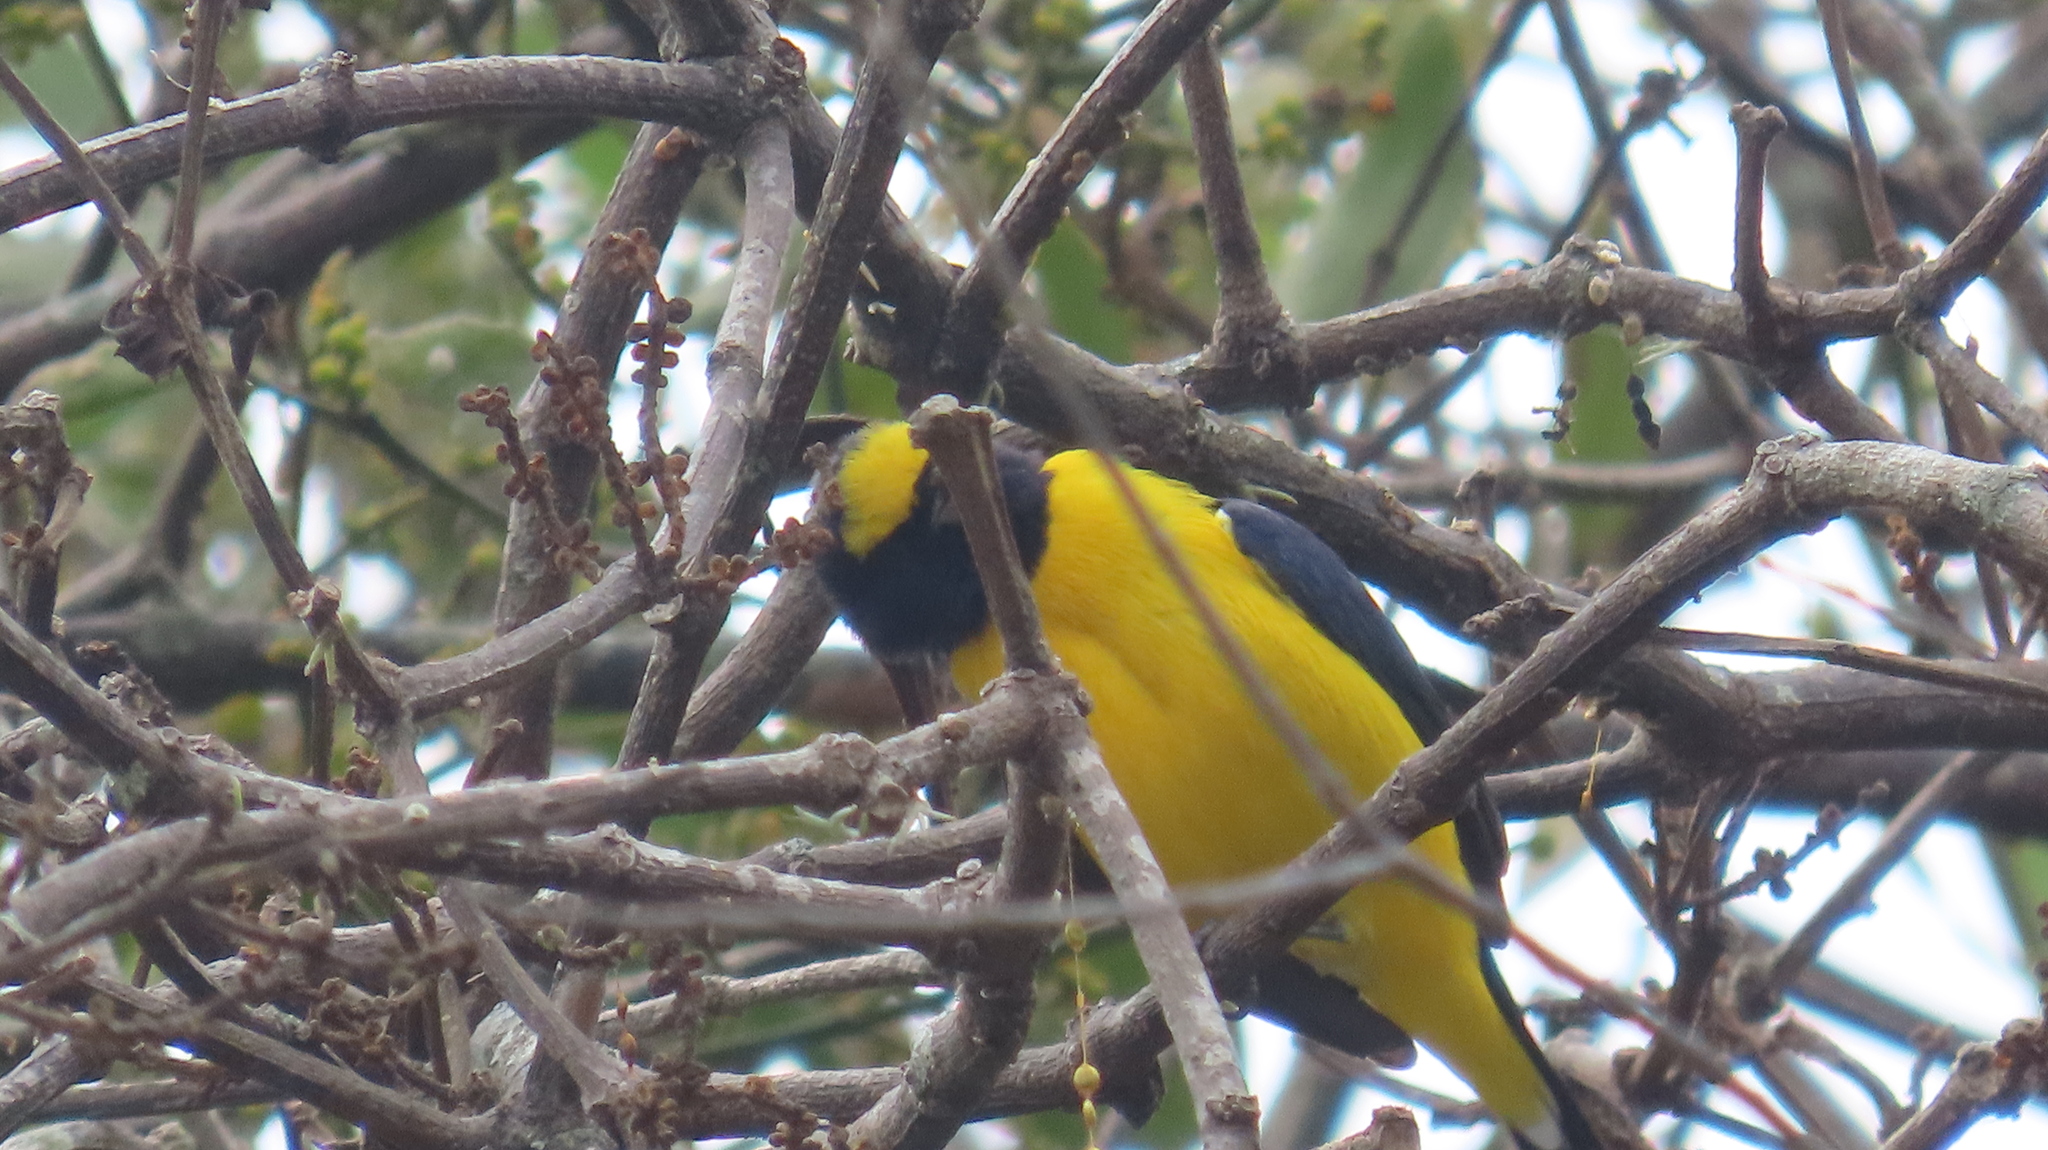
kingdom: Animalia
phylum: Chordata
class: Aves
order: Passeriformes
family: Fringillidae
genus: Euphonia
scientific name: Euphonia affinis
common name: Scrub euphonia
